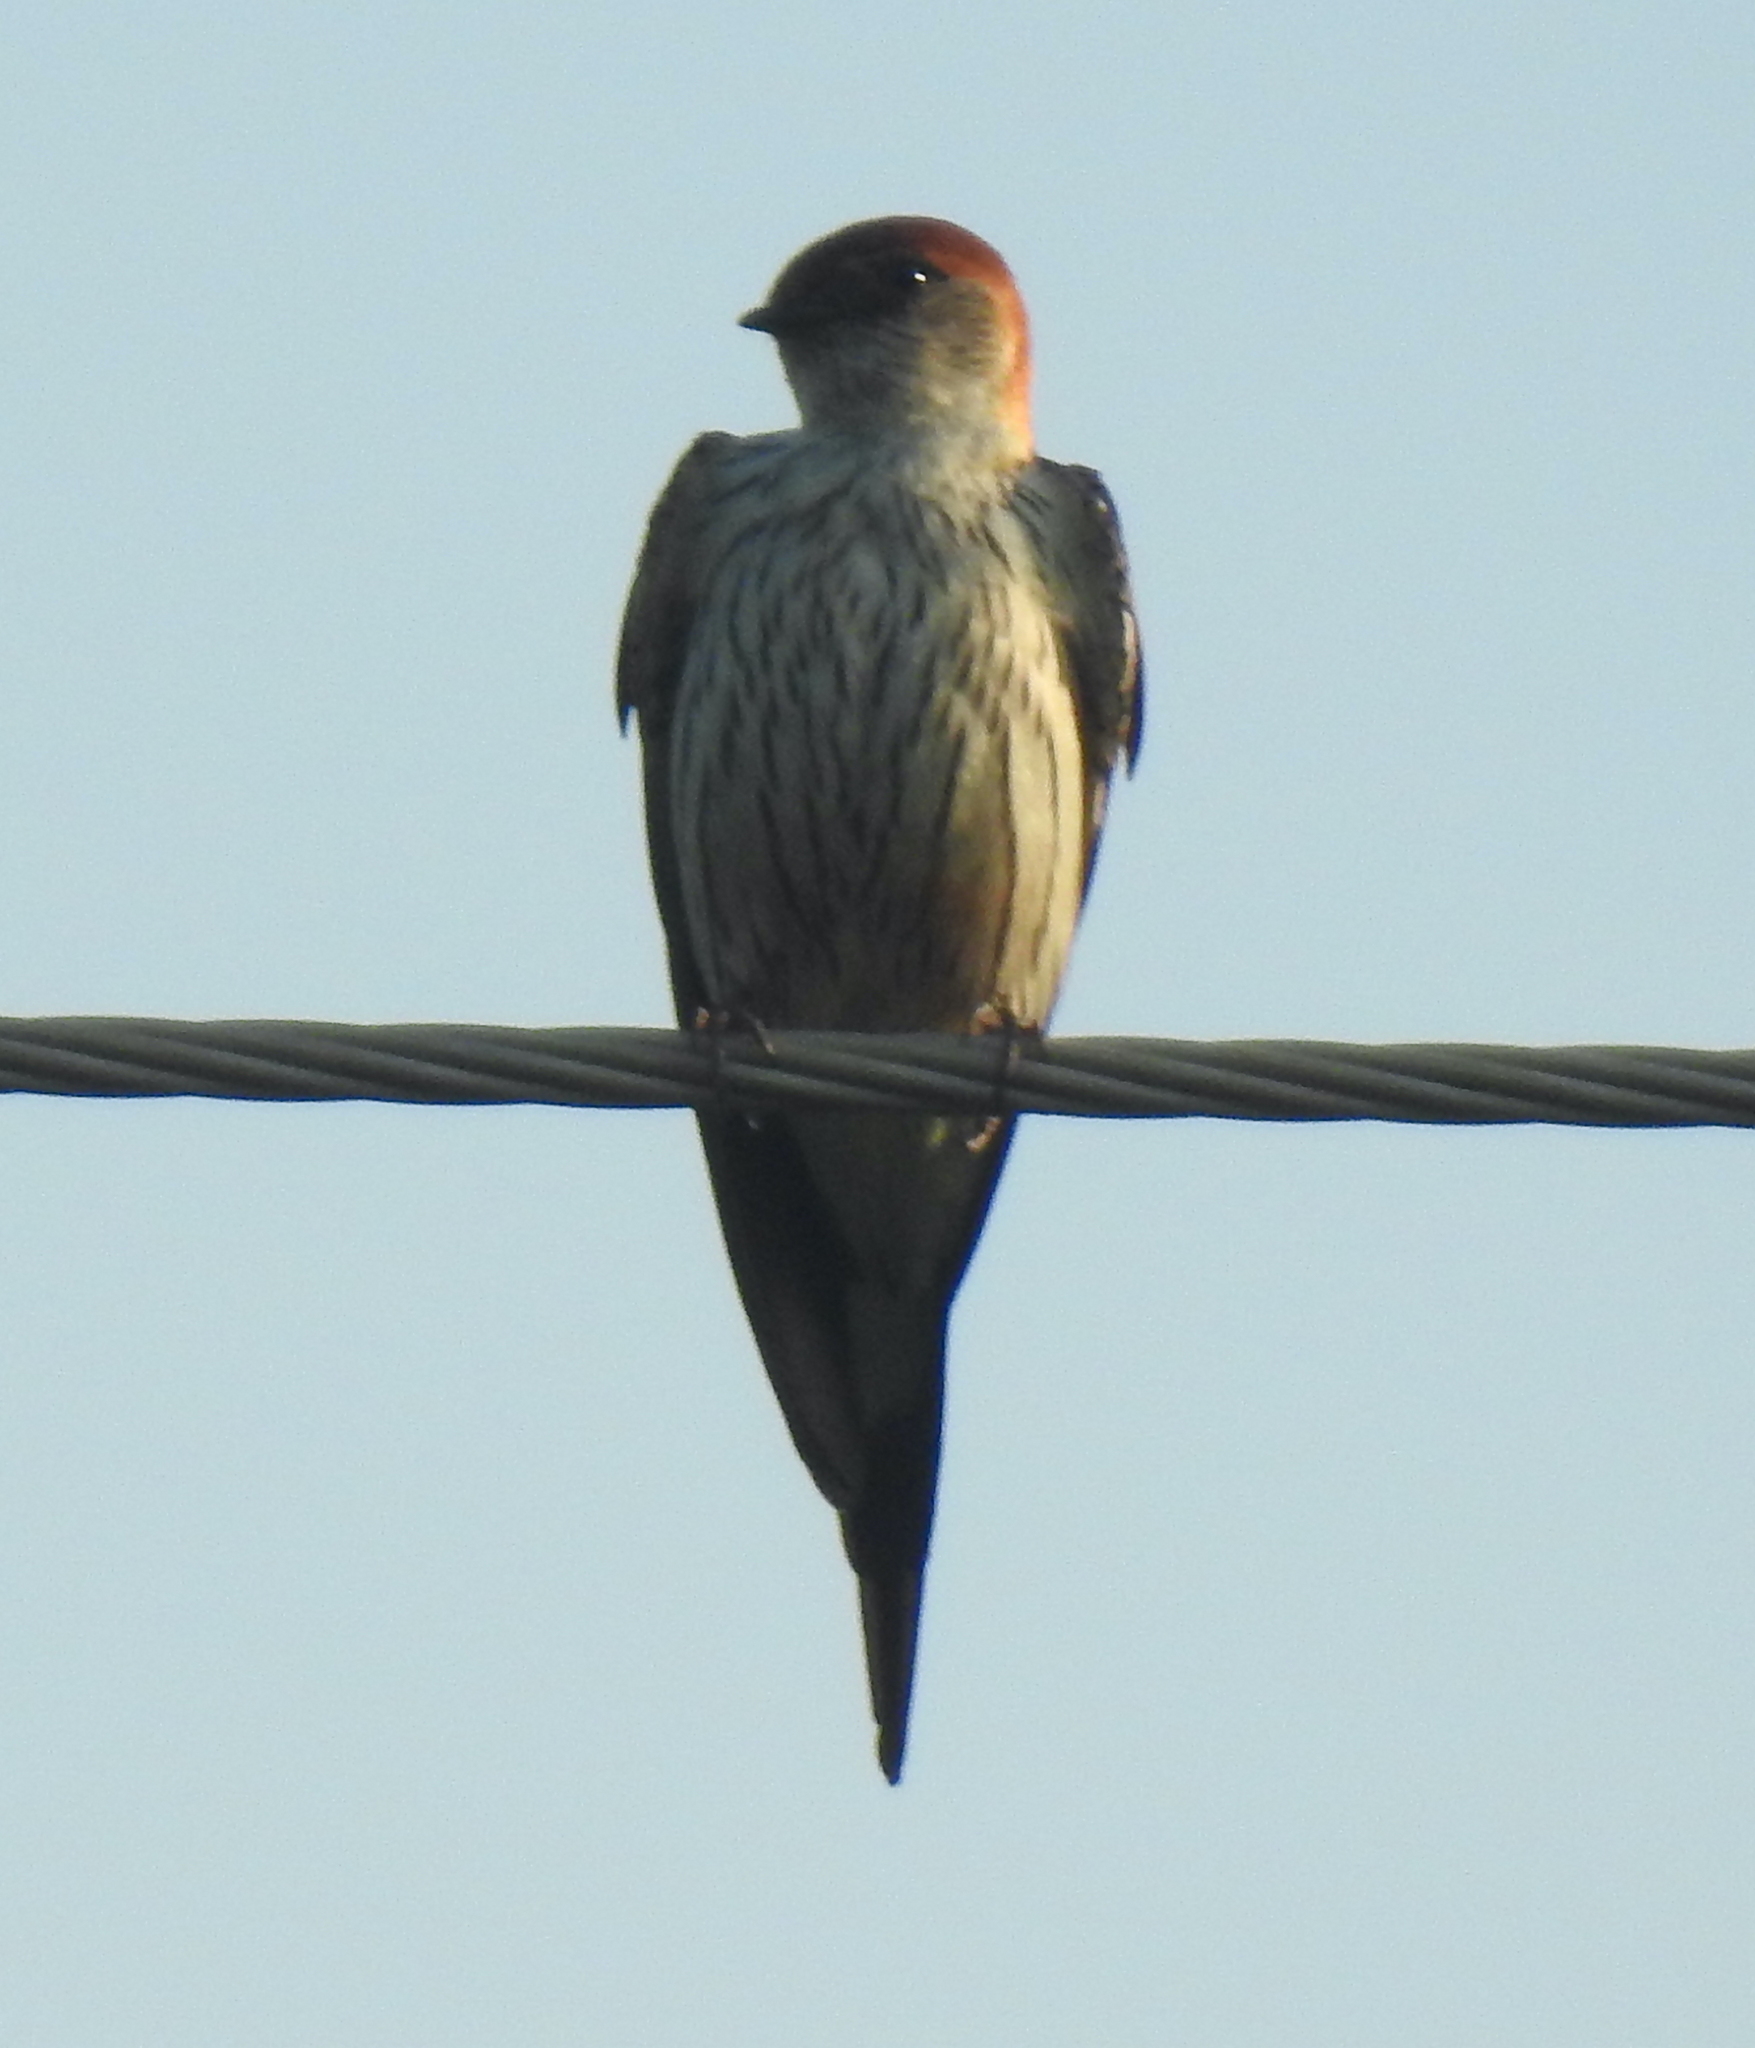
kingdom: Animalia
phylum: Chordata
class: Aves
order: Passeriformes
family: Hirundinidae
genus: Cecropis
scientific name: Cecropis cucullata
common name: Greater striped-swallow
